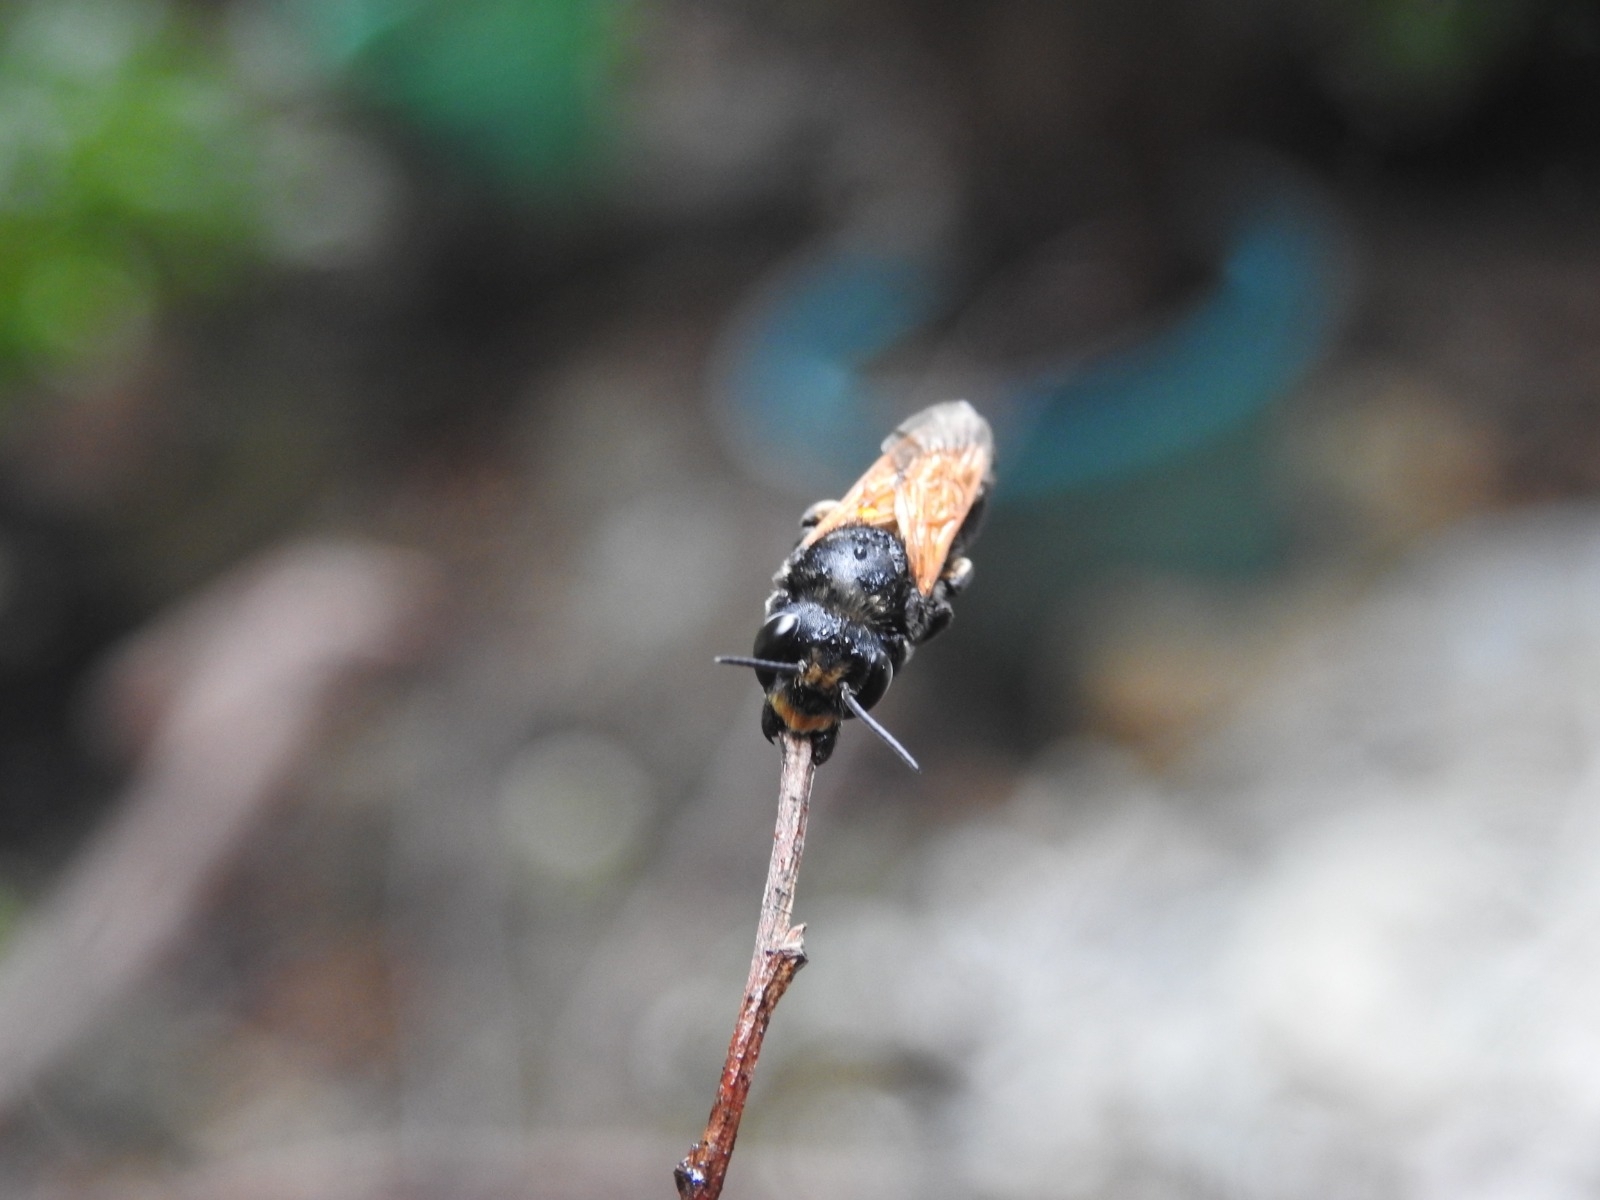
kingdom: Animalia
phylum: Arthropoda
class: Insecta
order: Hymenoptera
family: Megachilidae
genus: Megachile
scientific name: Megachile atrata
